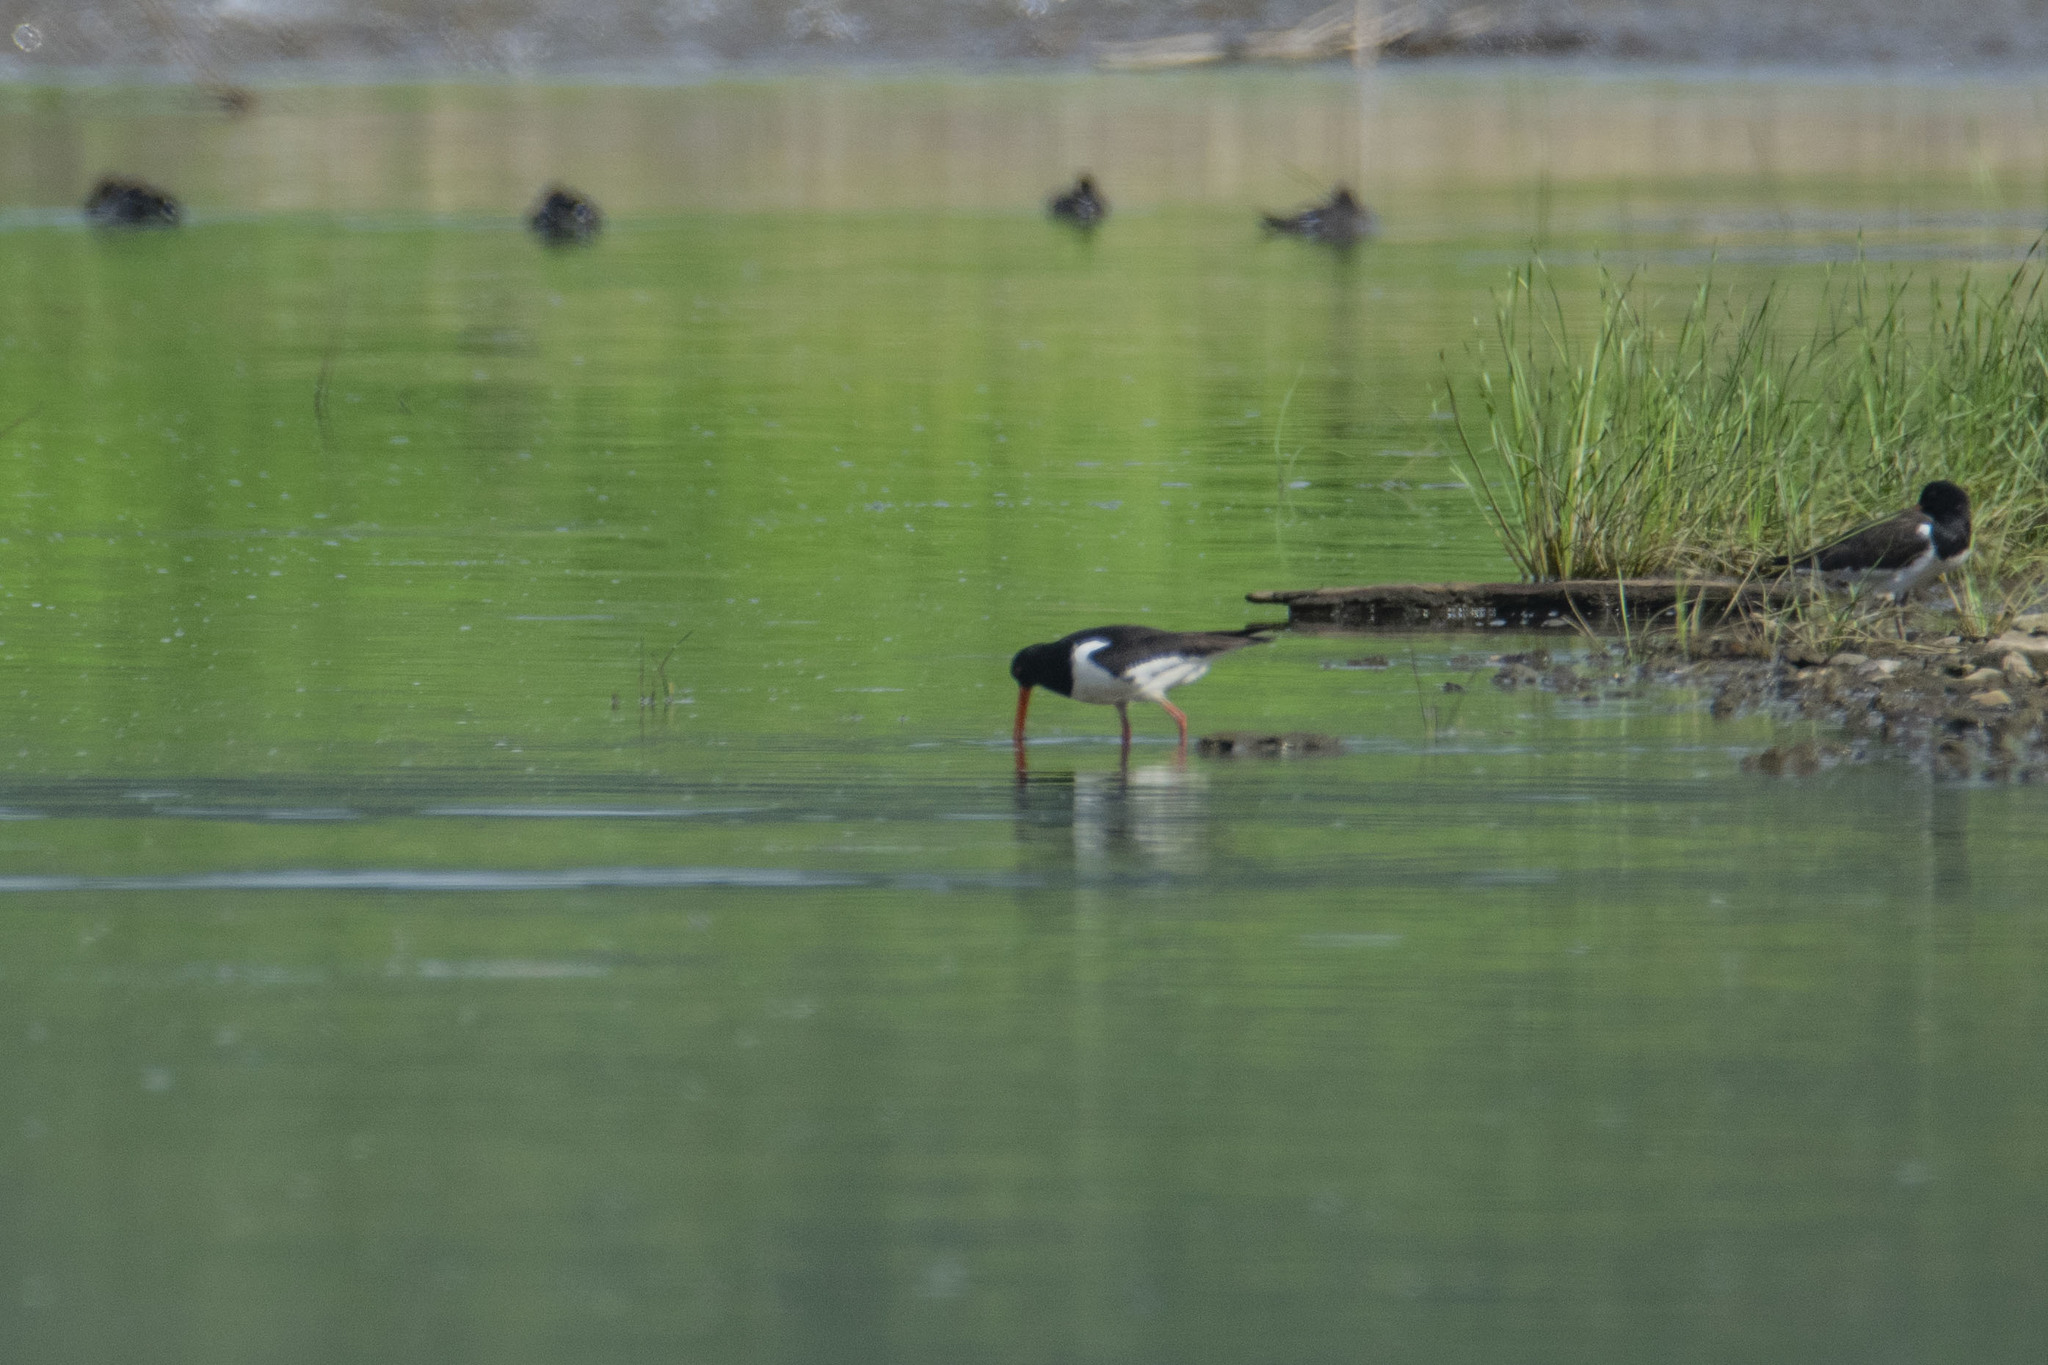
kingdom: Animalia
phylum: Chordata
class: Aves
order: Charadriiformes
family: Haematopodidae
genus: Haematopus
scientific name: Haematopus ostralegus
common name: Eurasian oystercatcher
